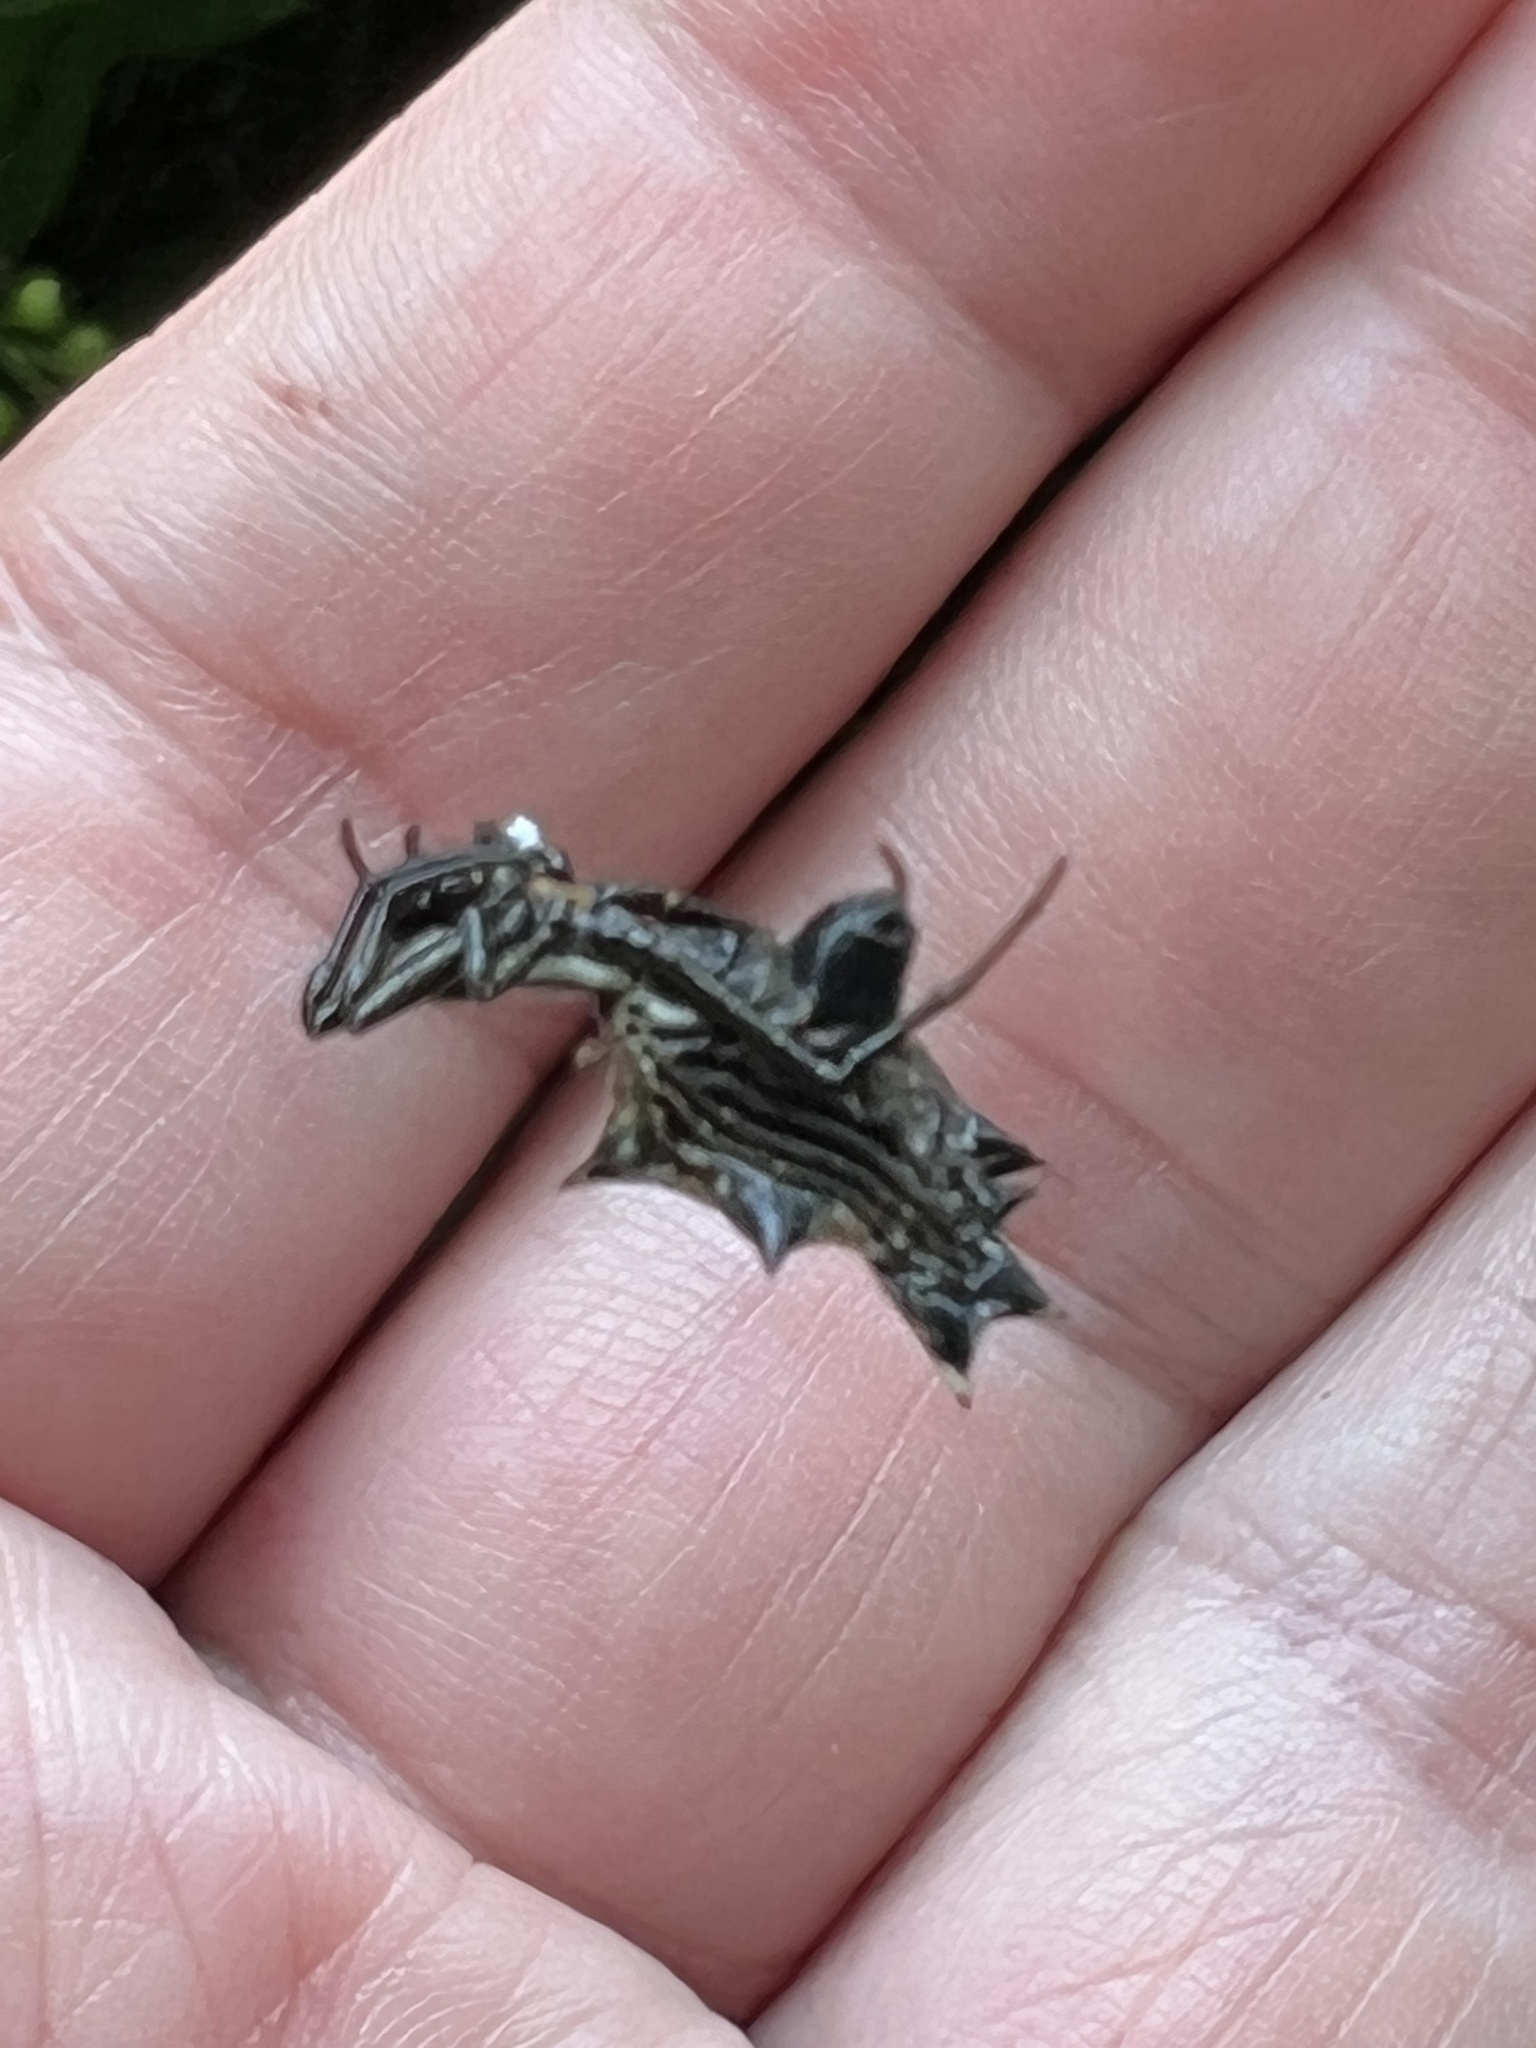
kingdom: Animalia
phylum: Arthropoda
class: Arachnida
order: Araneae
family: Araneidae
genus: Micrathena
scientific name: Micrathena gracilis
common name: Orb weavers
